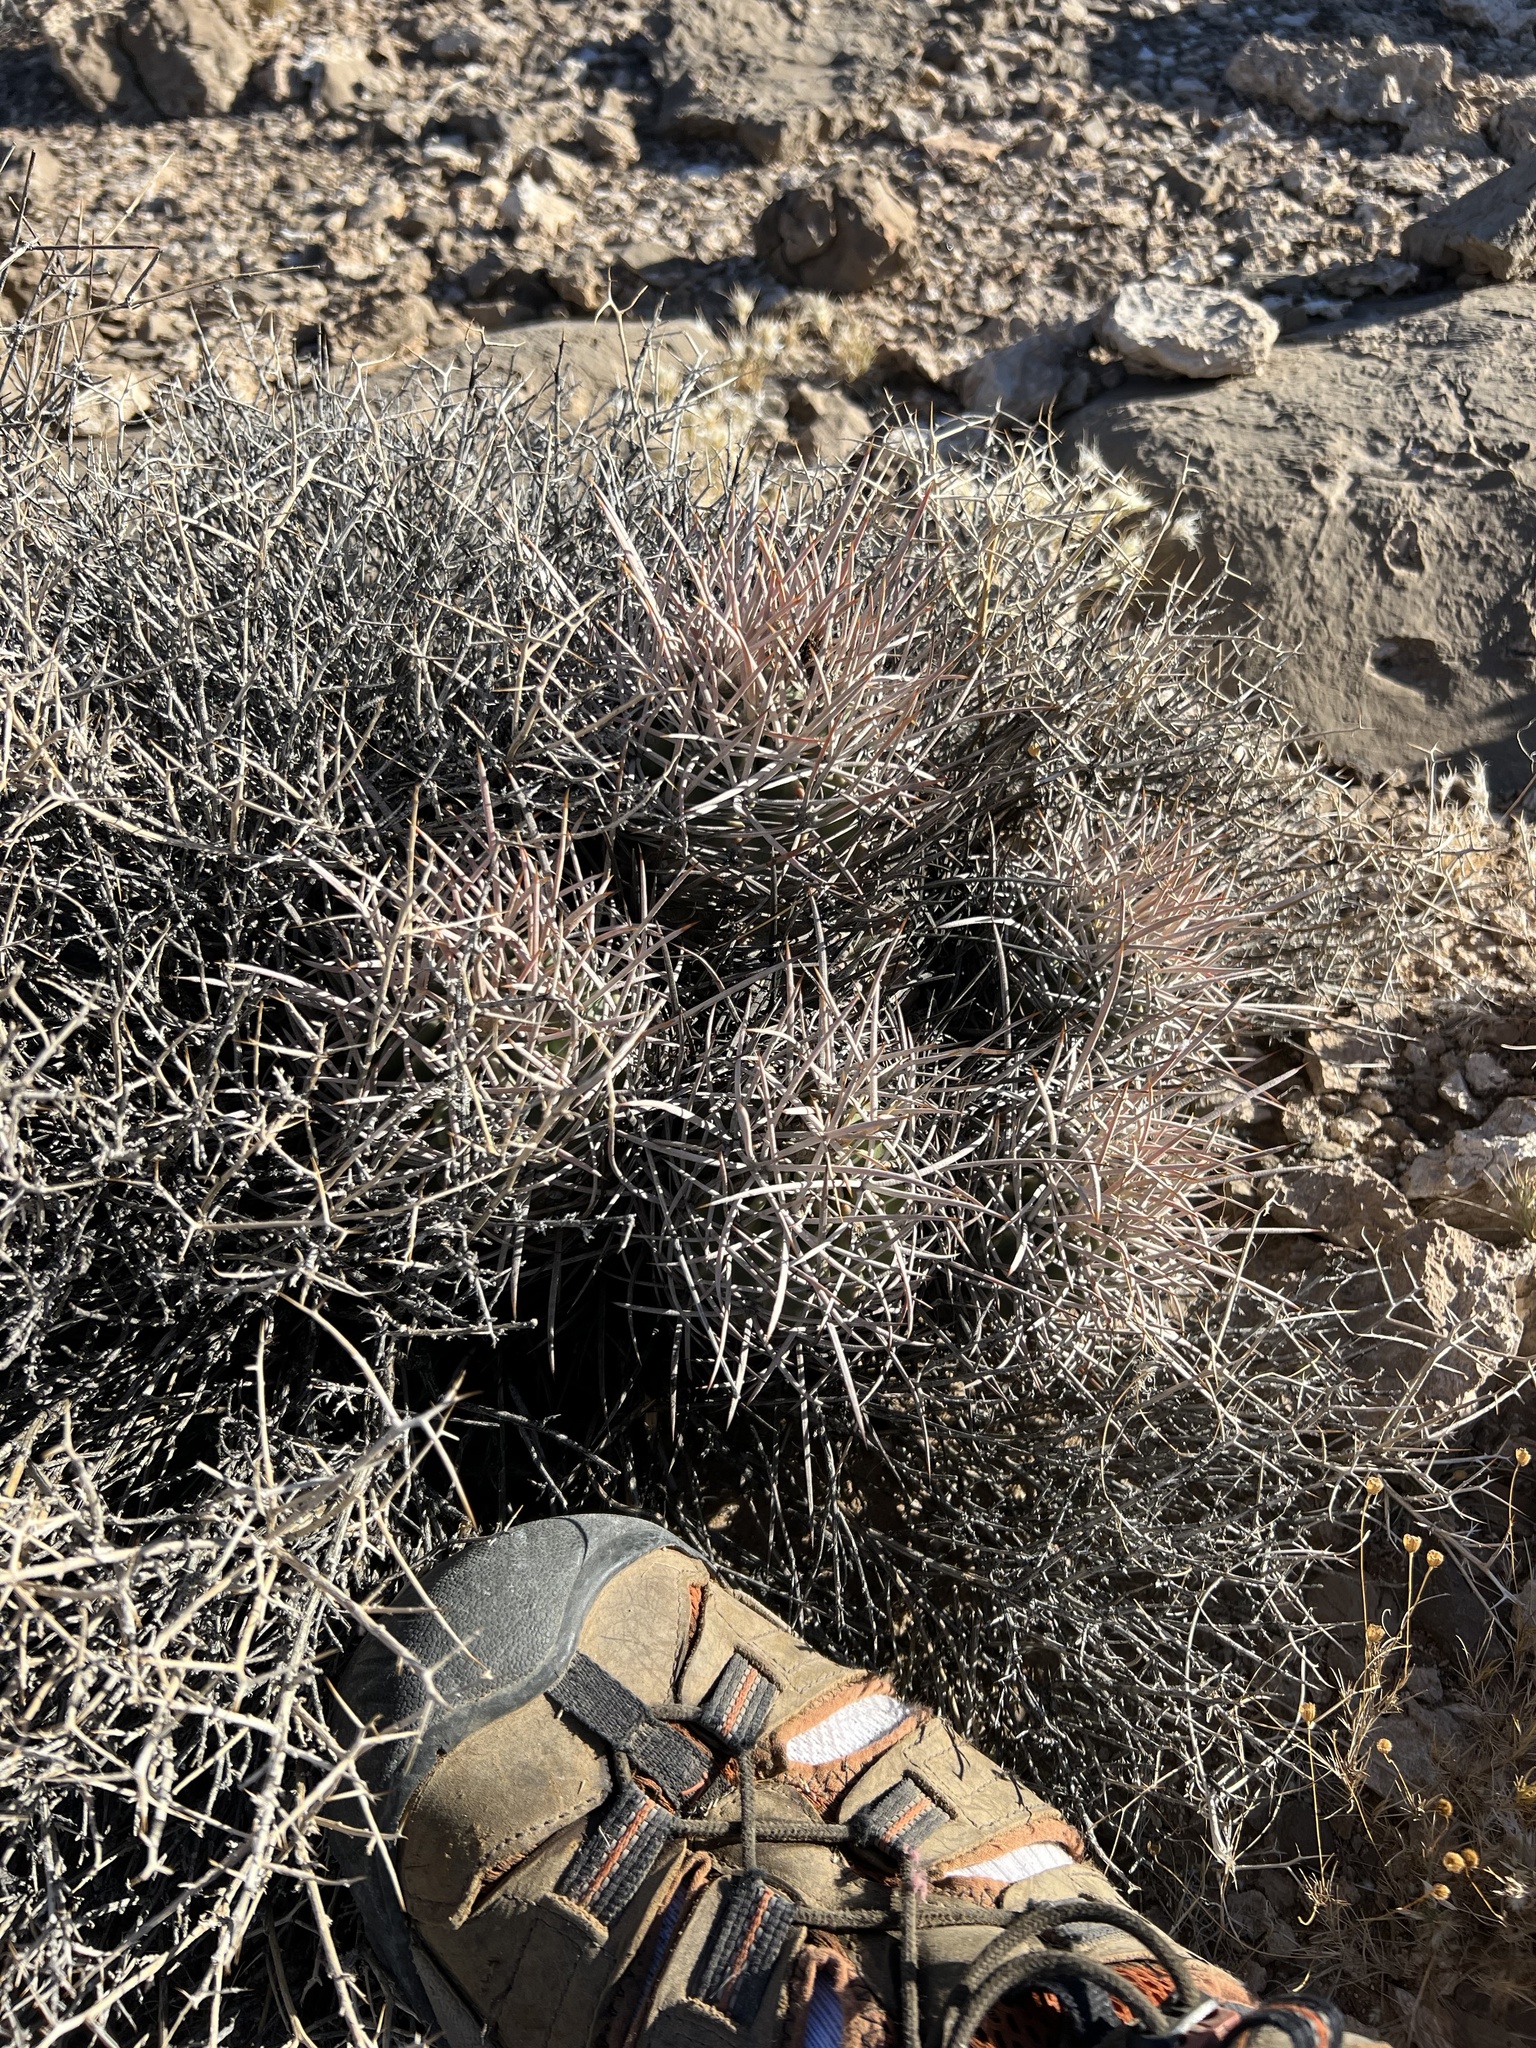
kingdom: Plantae
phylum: Tracheophyta
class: Magnoliopsida
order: Caryophyllales
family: Cactaceae
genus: Echinocactus
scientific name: Echinocactus polycephalus
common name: Cottontop cactus
